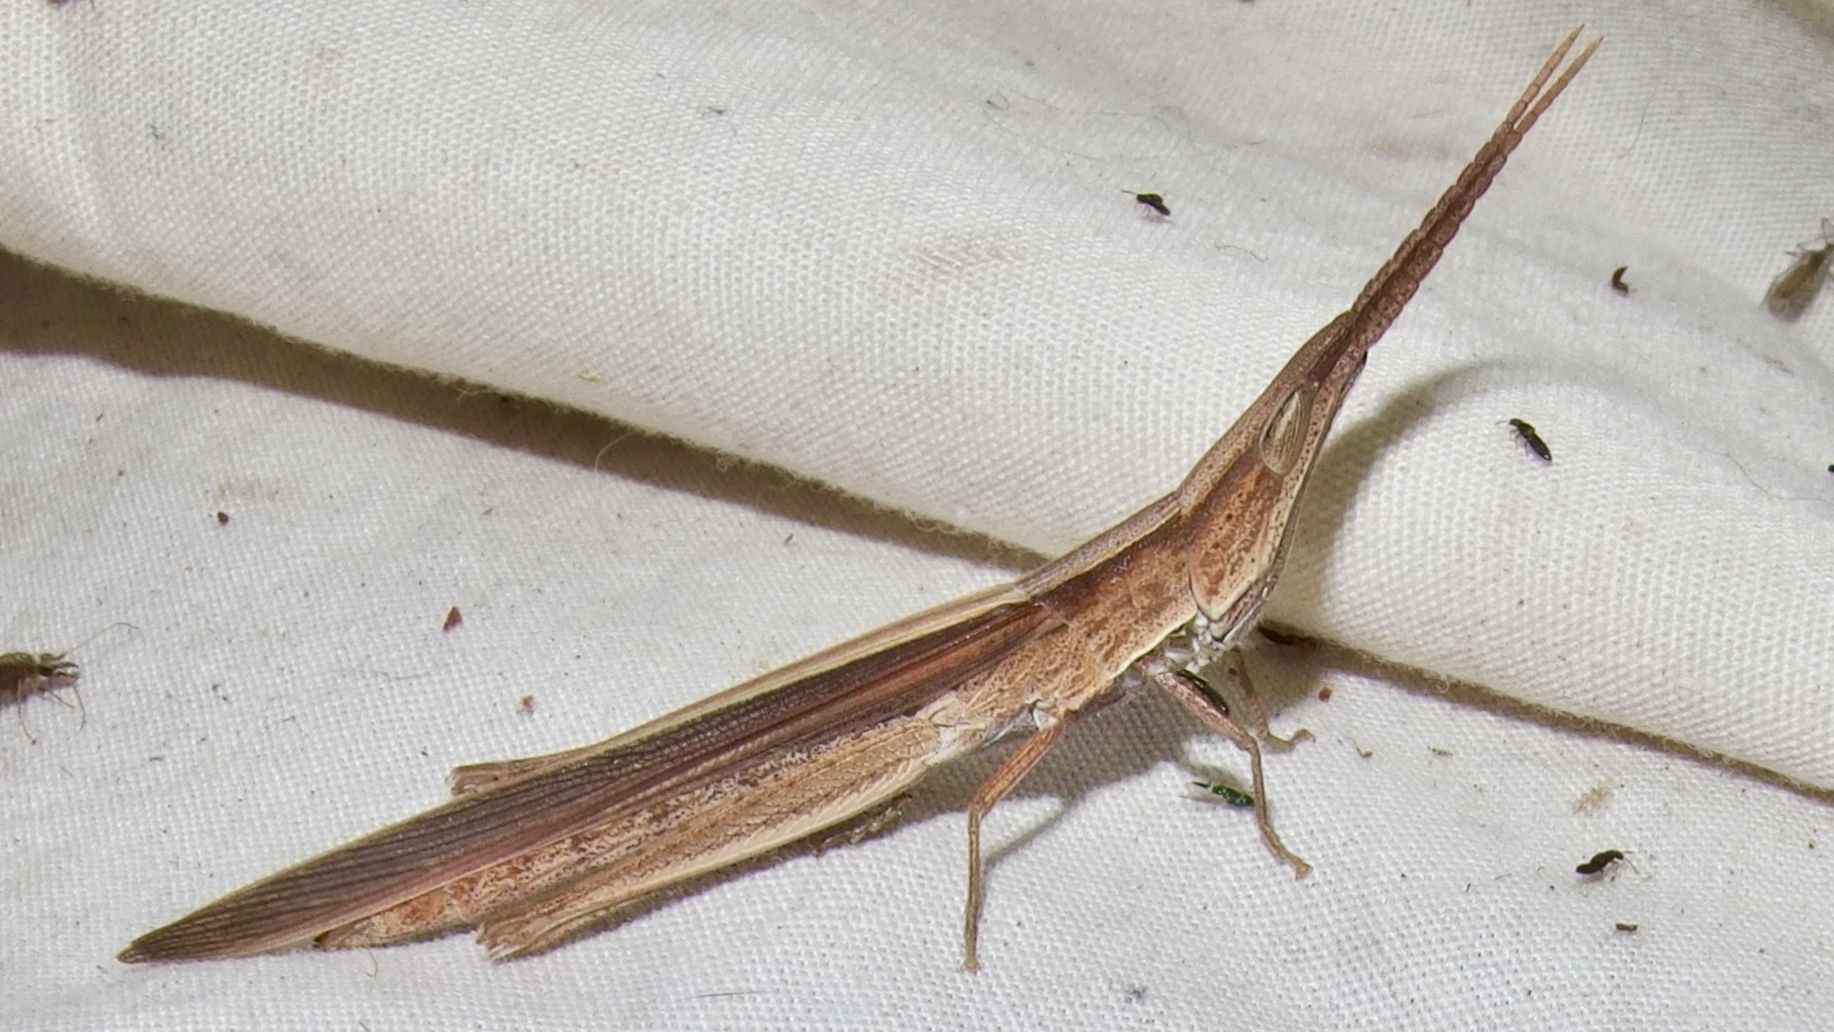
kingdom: Animalia
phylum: Arthropoda
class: Insecta
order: Orthoptera
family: Acrididae
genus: Achurum
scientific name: Achurum sumichrasti
